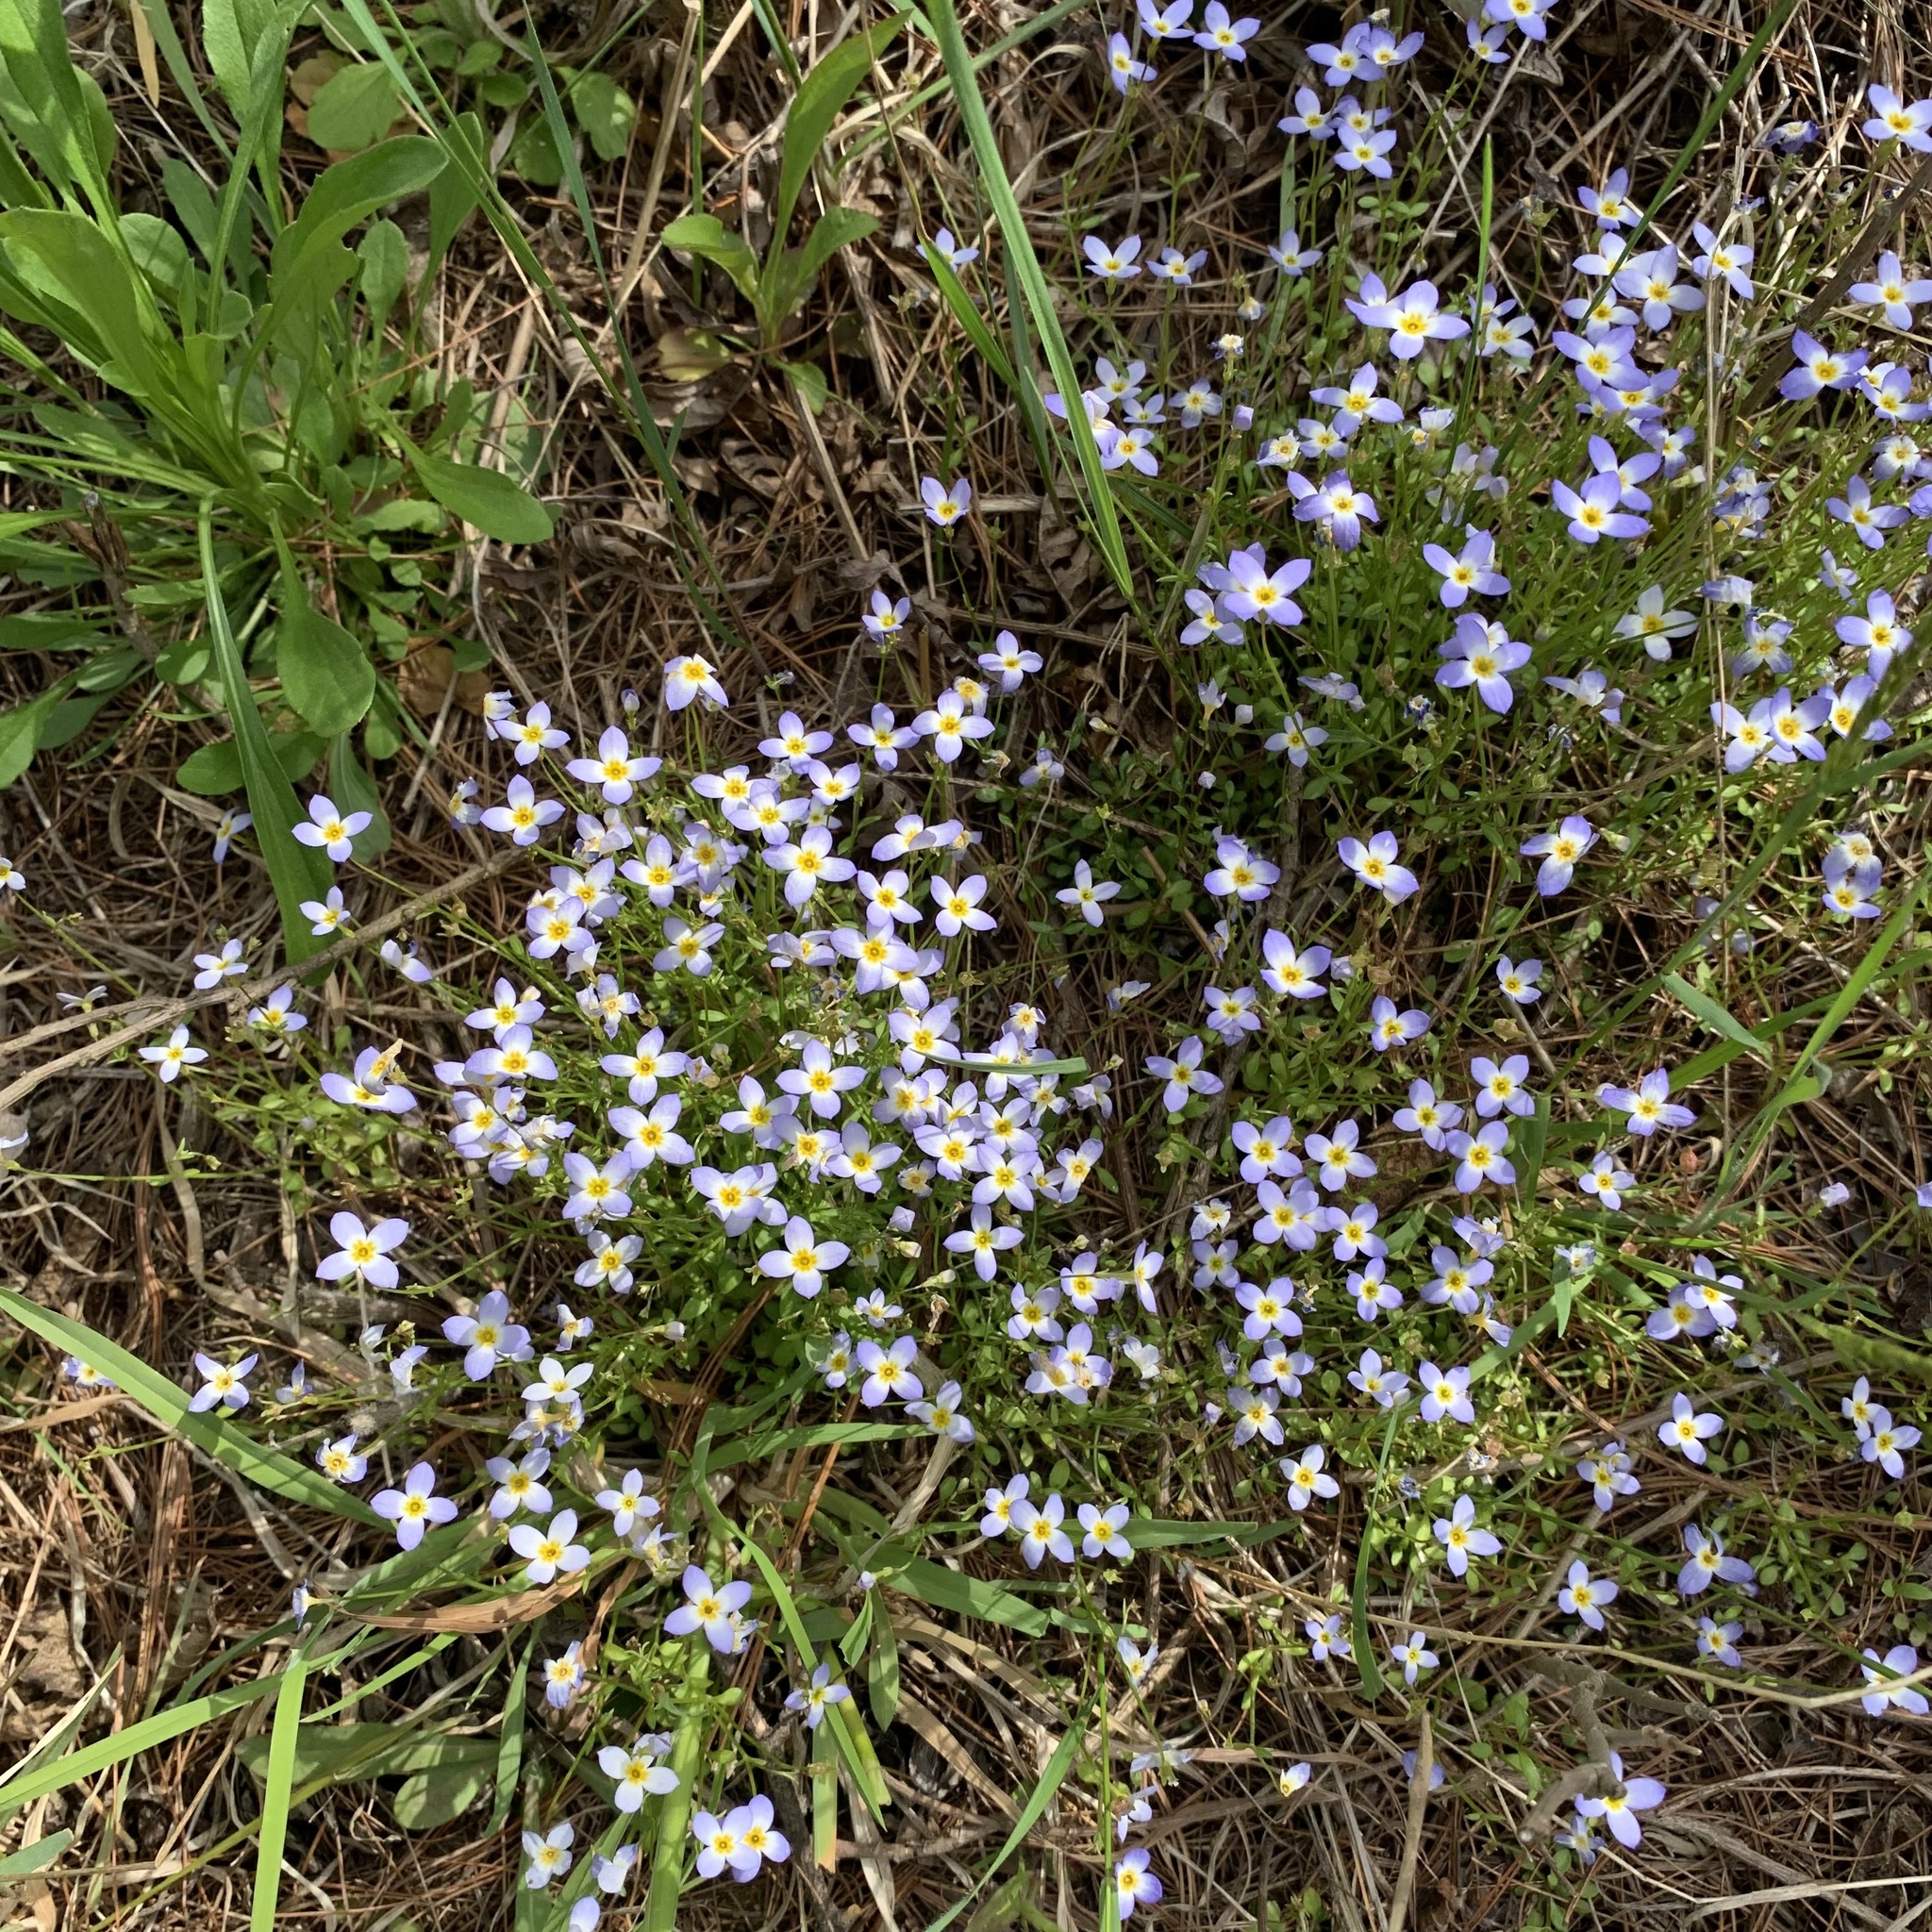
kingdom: Plantae
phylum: Tracheophyta
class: Magnoliopsida
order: Gentianales
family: Rubiaceae
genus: Houstonia
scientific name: Houstonia caerulea
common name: Bluets
